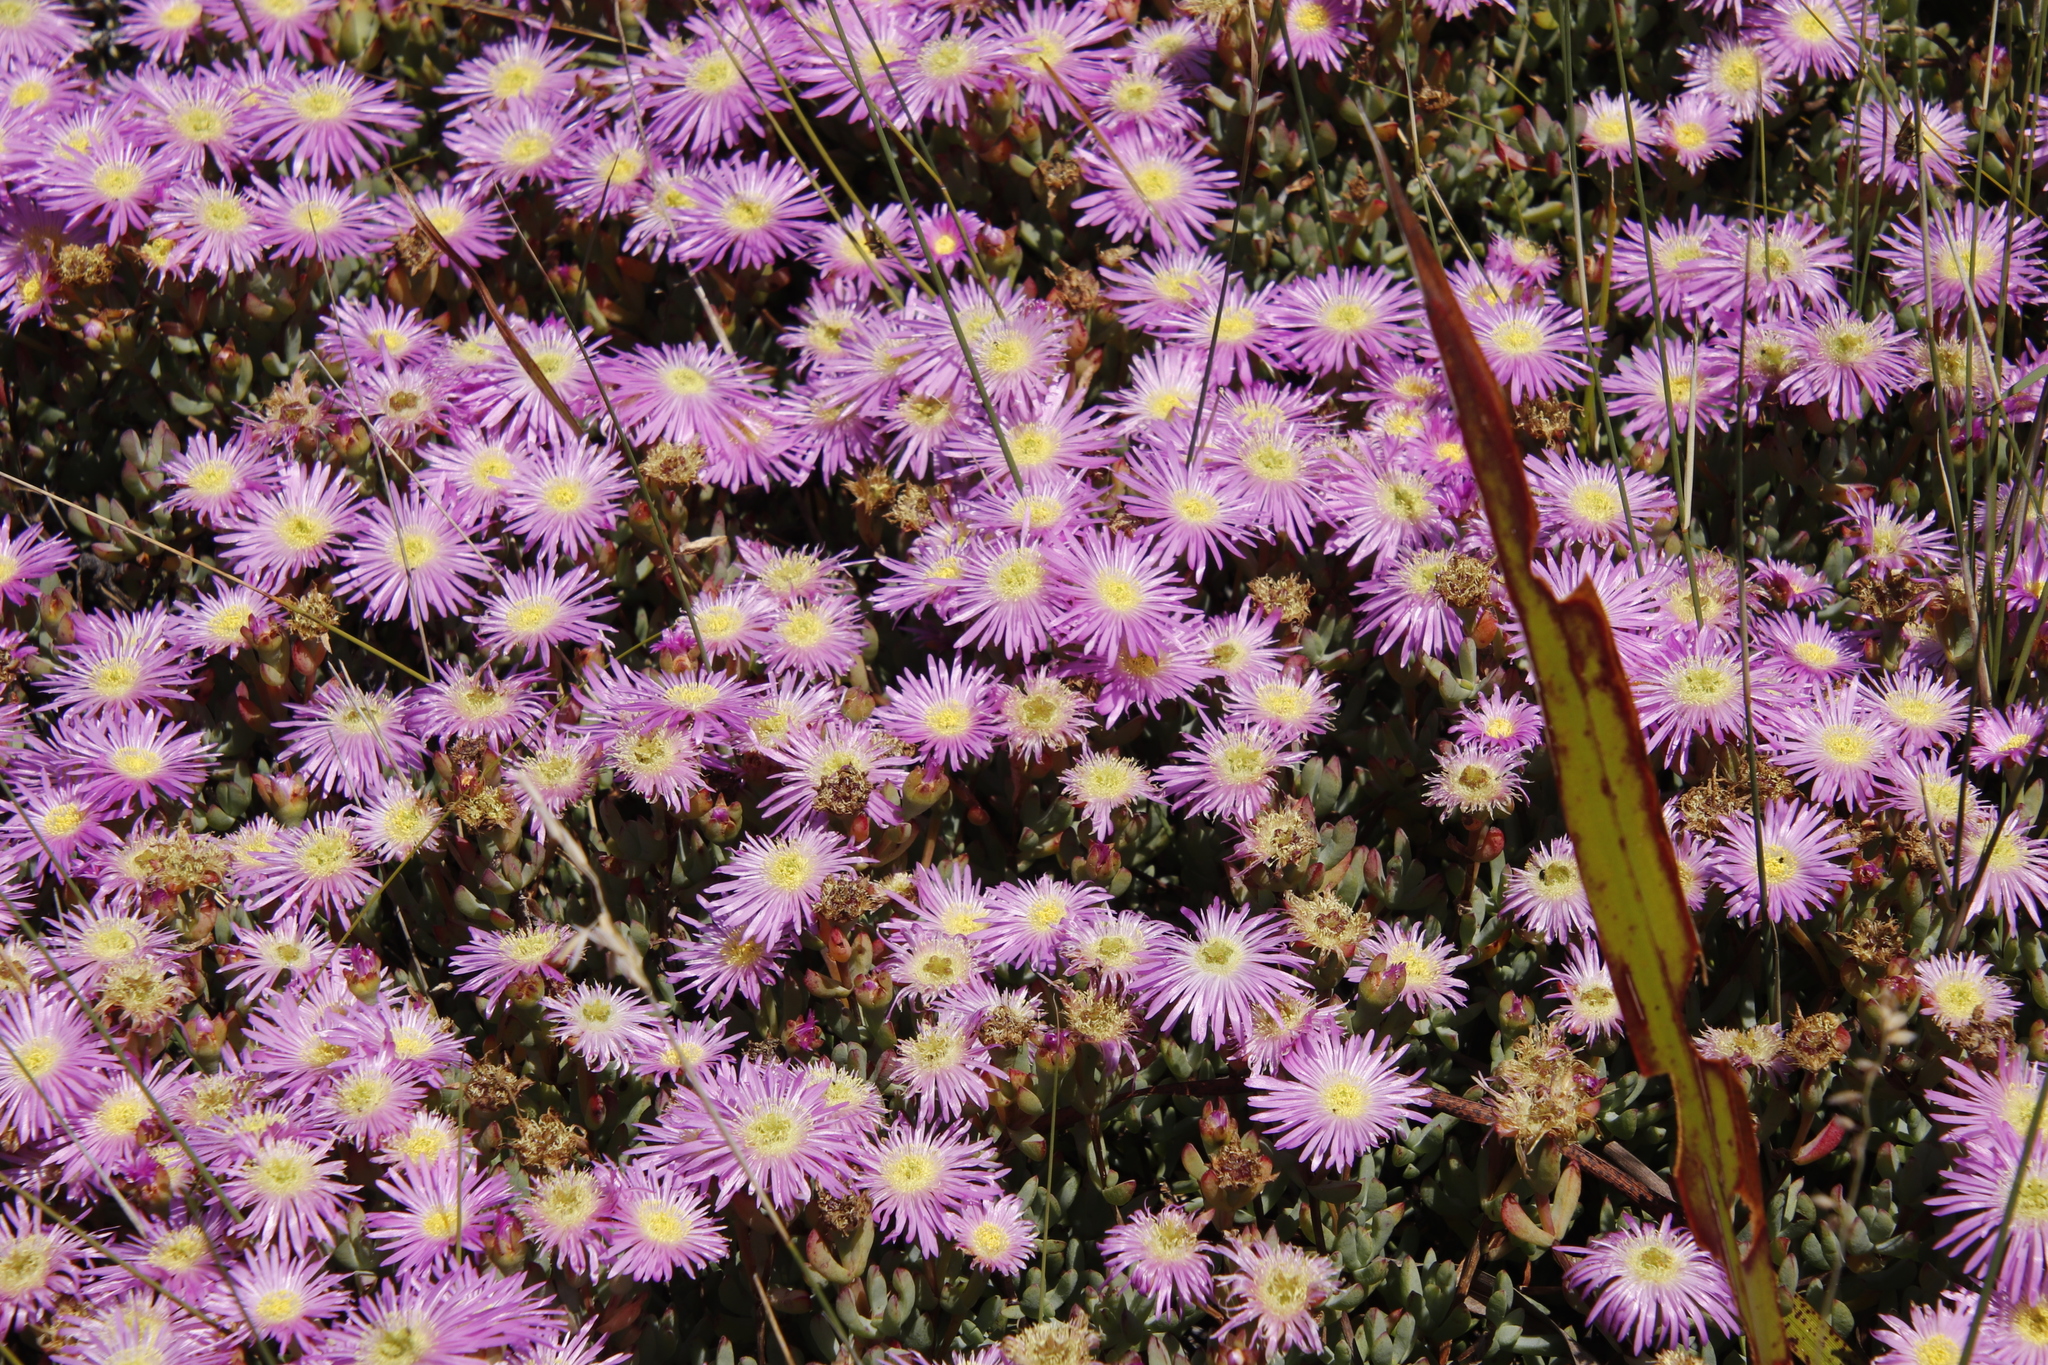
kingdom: Plantae
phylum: Tracheophyta
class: Magnoliopsida
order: Caryophyllales
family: Aizoaceae
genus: Oscularia
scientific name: Oscularia falciformis
